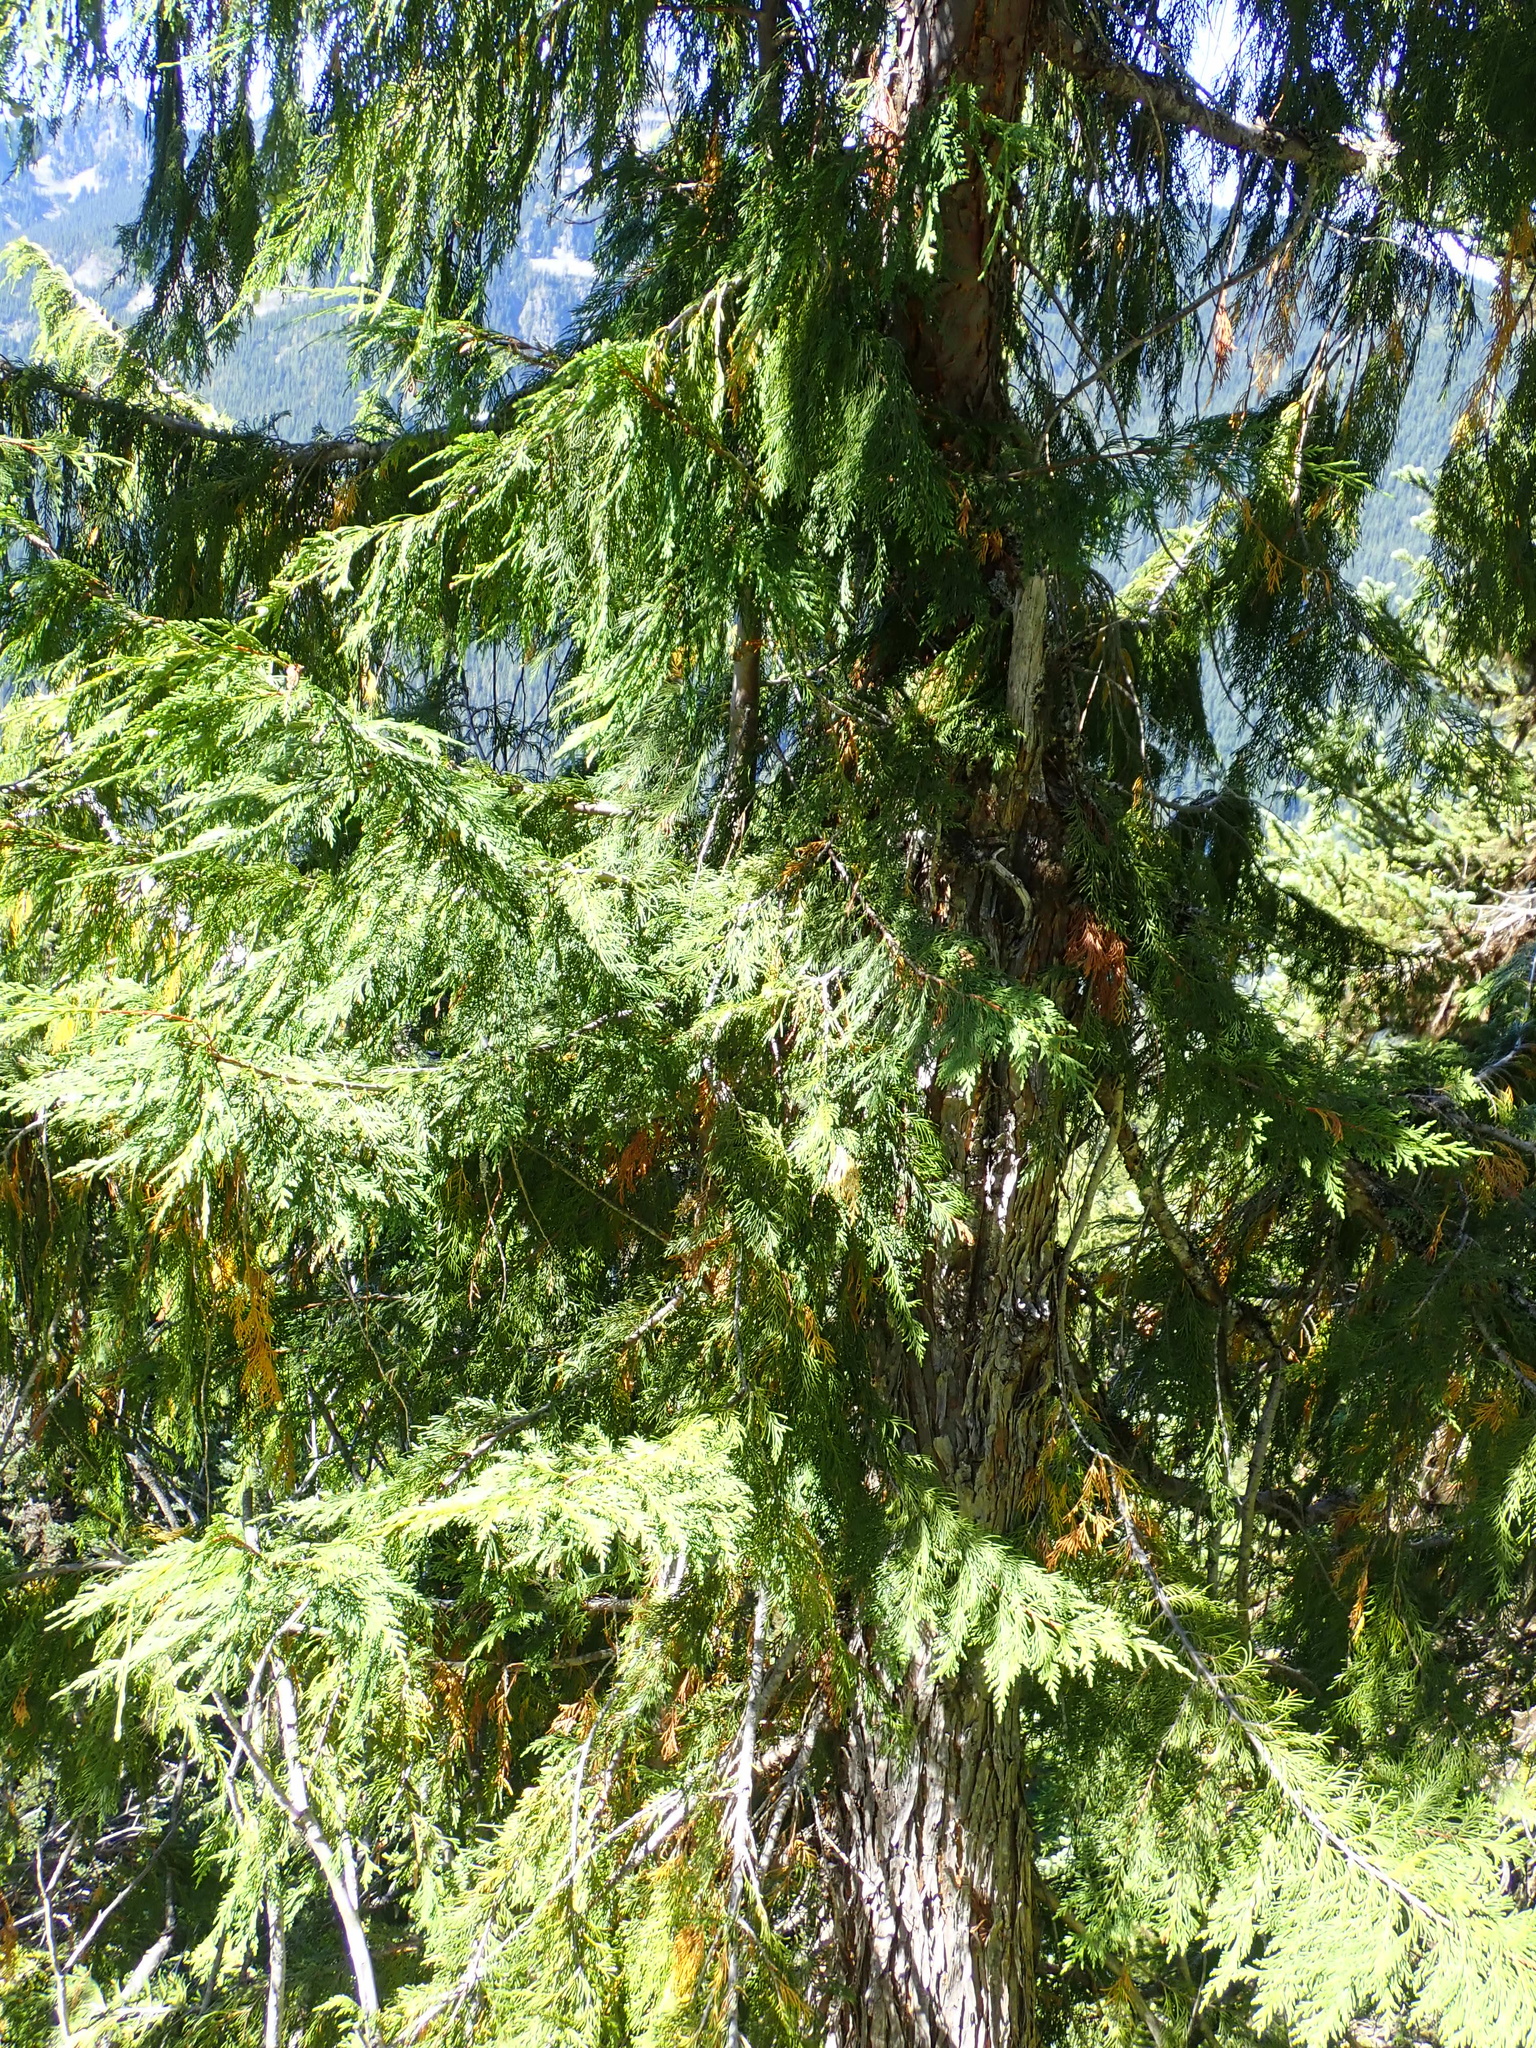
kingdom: Plantae
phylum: Tracheophyta
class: Pinopsida
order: Pinales
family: Cupressaceae
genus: Xanthocyparis
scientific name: Xanthocyparis nootkatensis
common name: Nootka cypress
